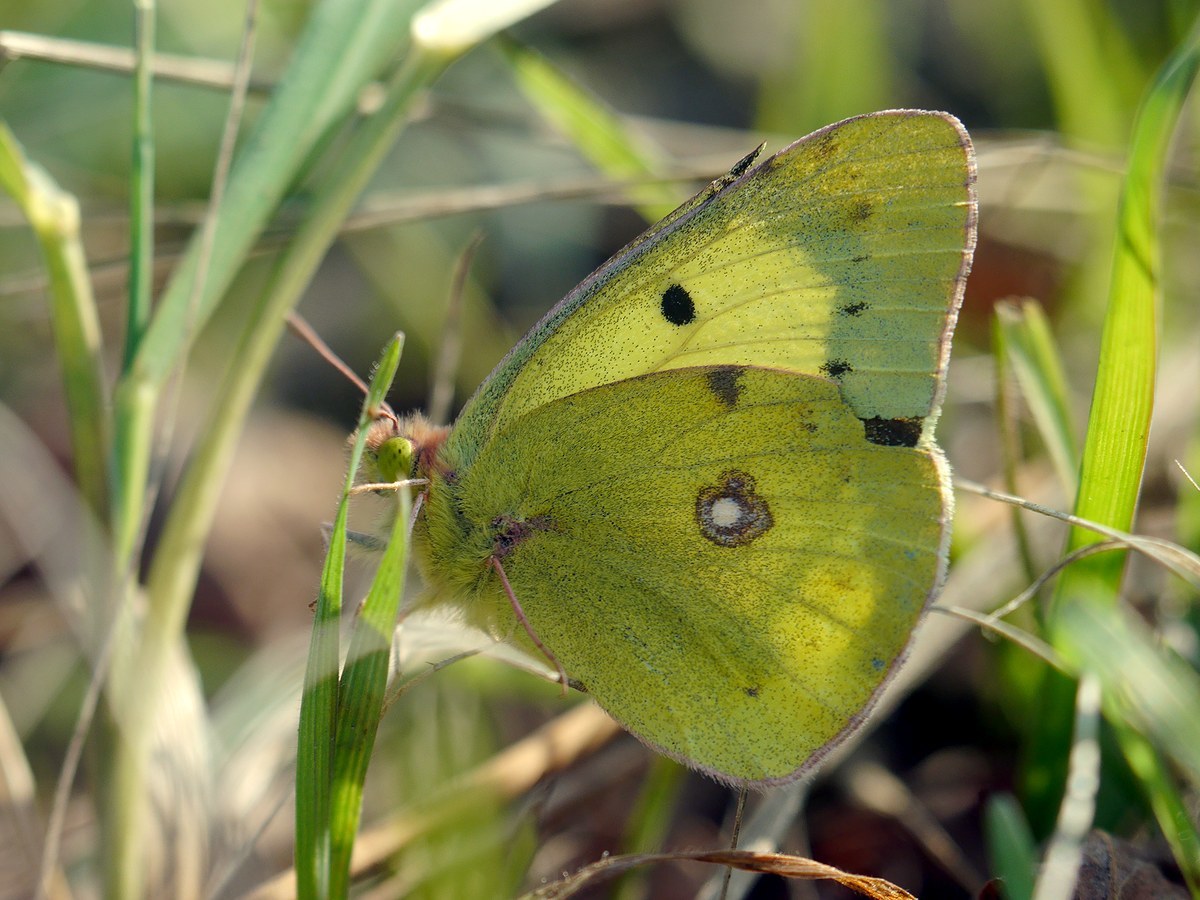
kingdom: Animalia
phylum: Arthropoda
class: Insecta
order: Lepidoptera
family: Pieridae
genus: Colias
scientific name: Colias erate
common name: Eastern pale clouded yellow
